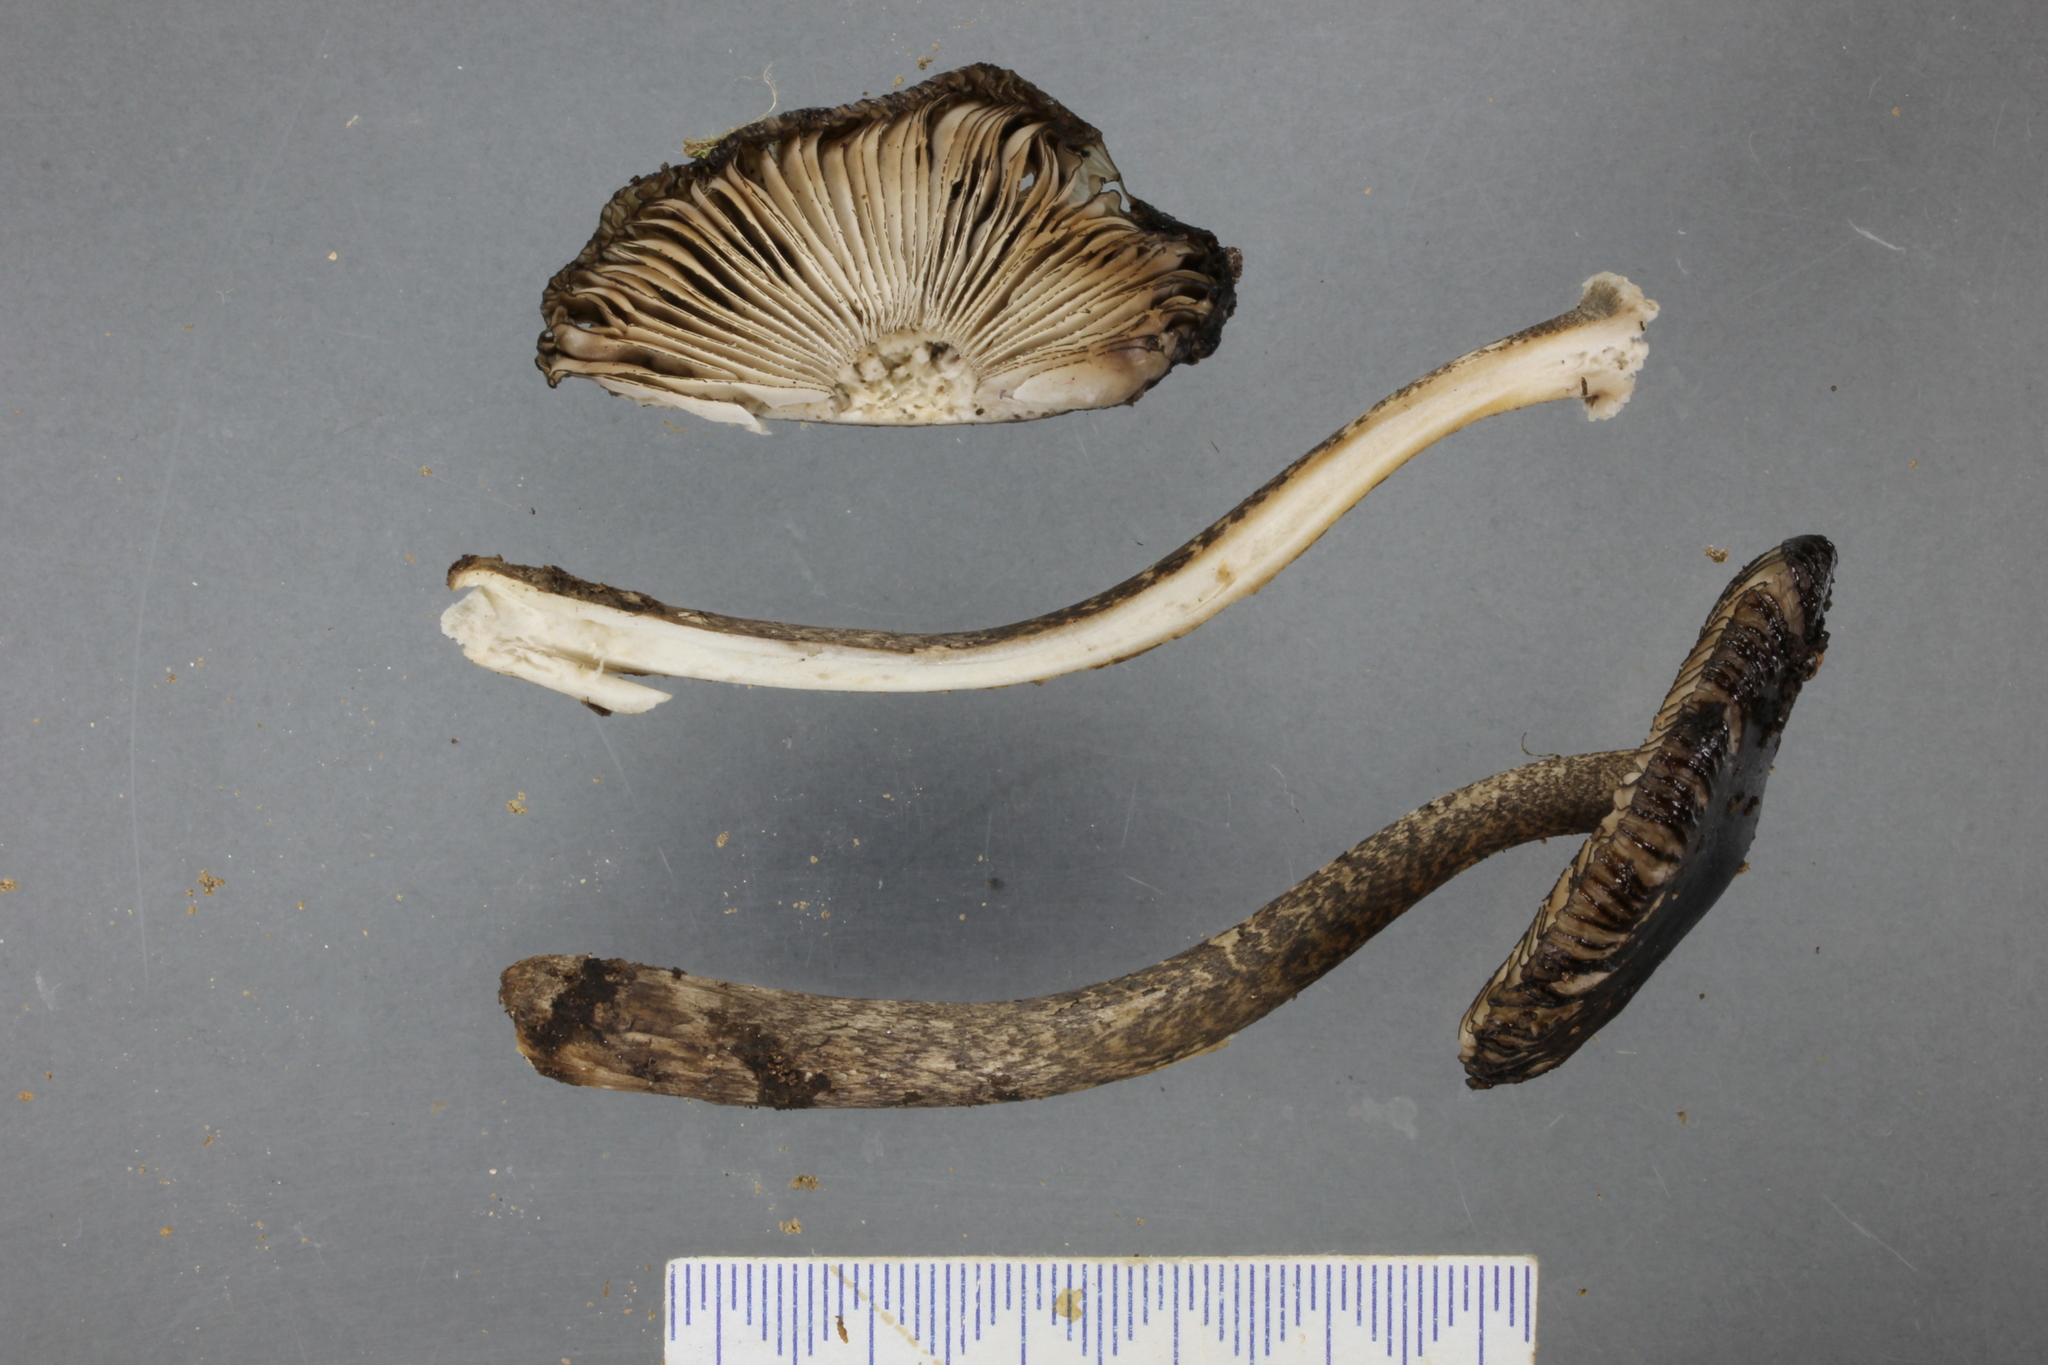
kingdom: Fungi
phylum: Basidiomycota
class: Agaricomycetes
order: Agaricales
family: Amanitaceae
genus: Amanita
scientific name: Amanita pekeoides
